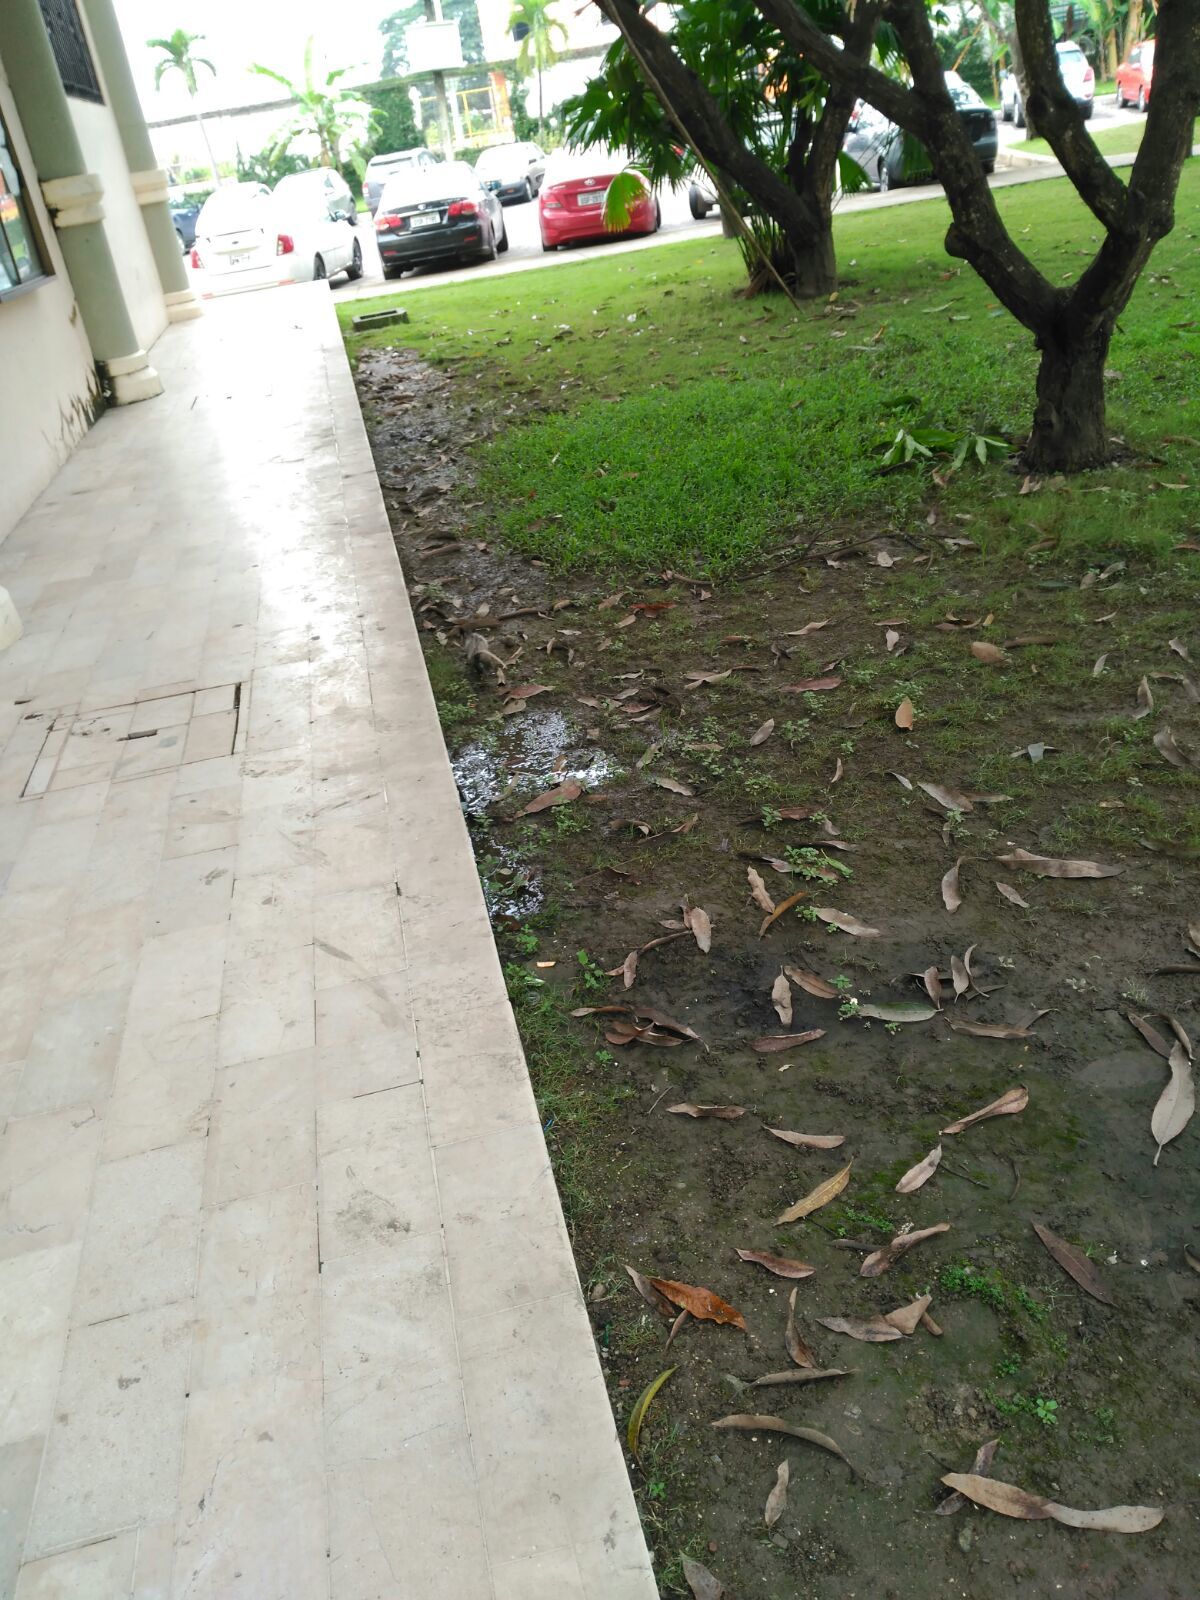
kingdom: Animalia
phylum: Chordata
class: Mammalia
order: Didelphimorphia
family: Didelphidae
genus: Didelphis
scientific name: Didelphis marsupialis
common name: Common opossum
